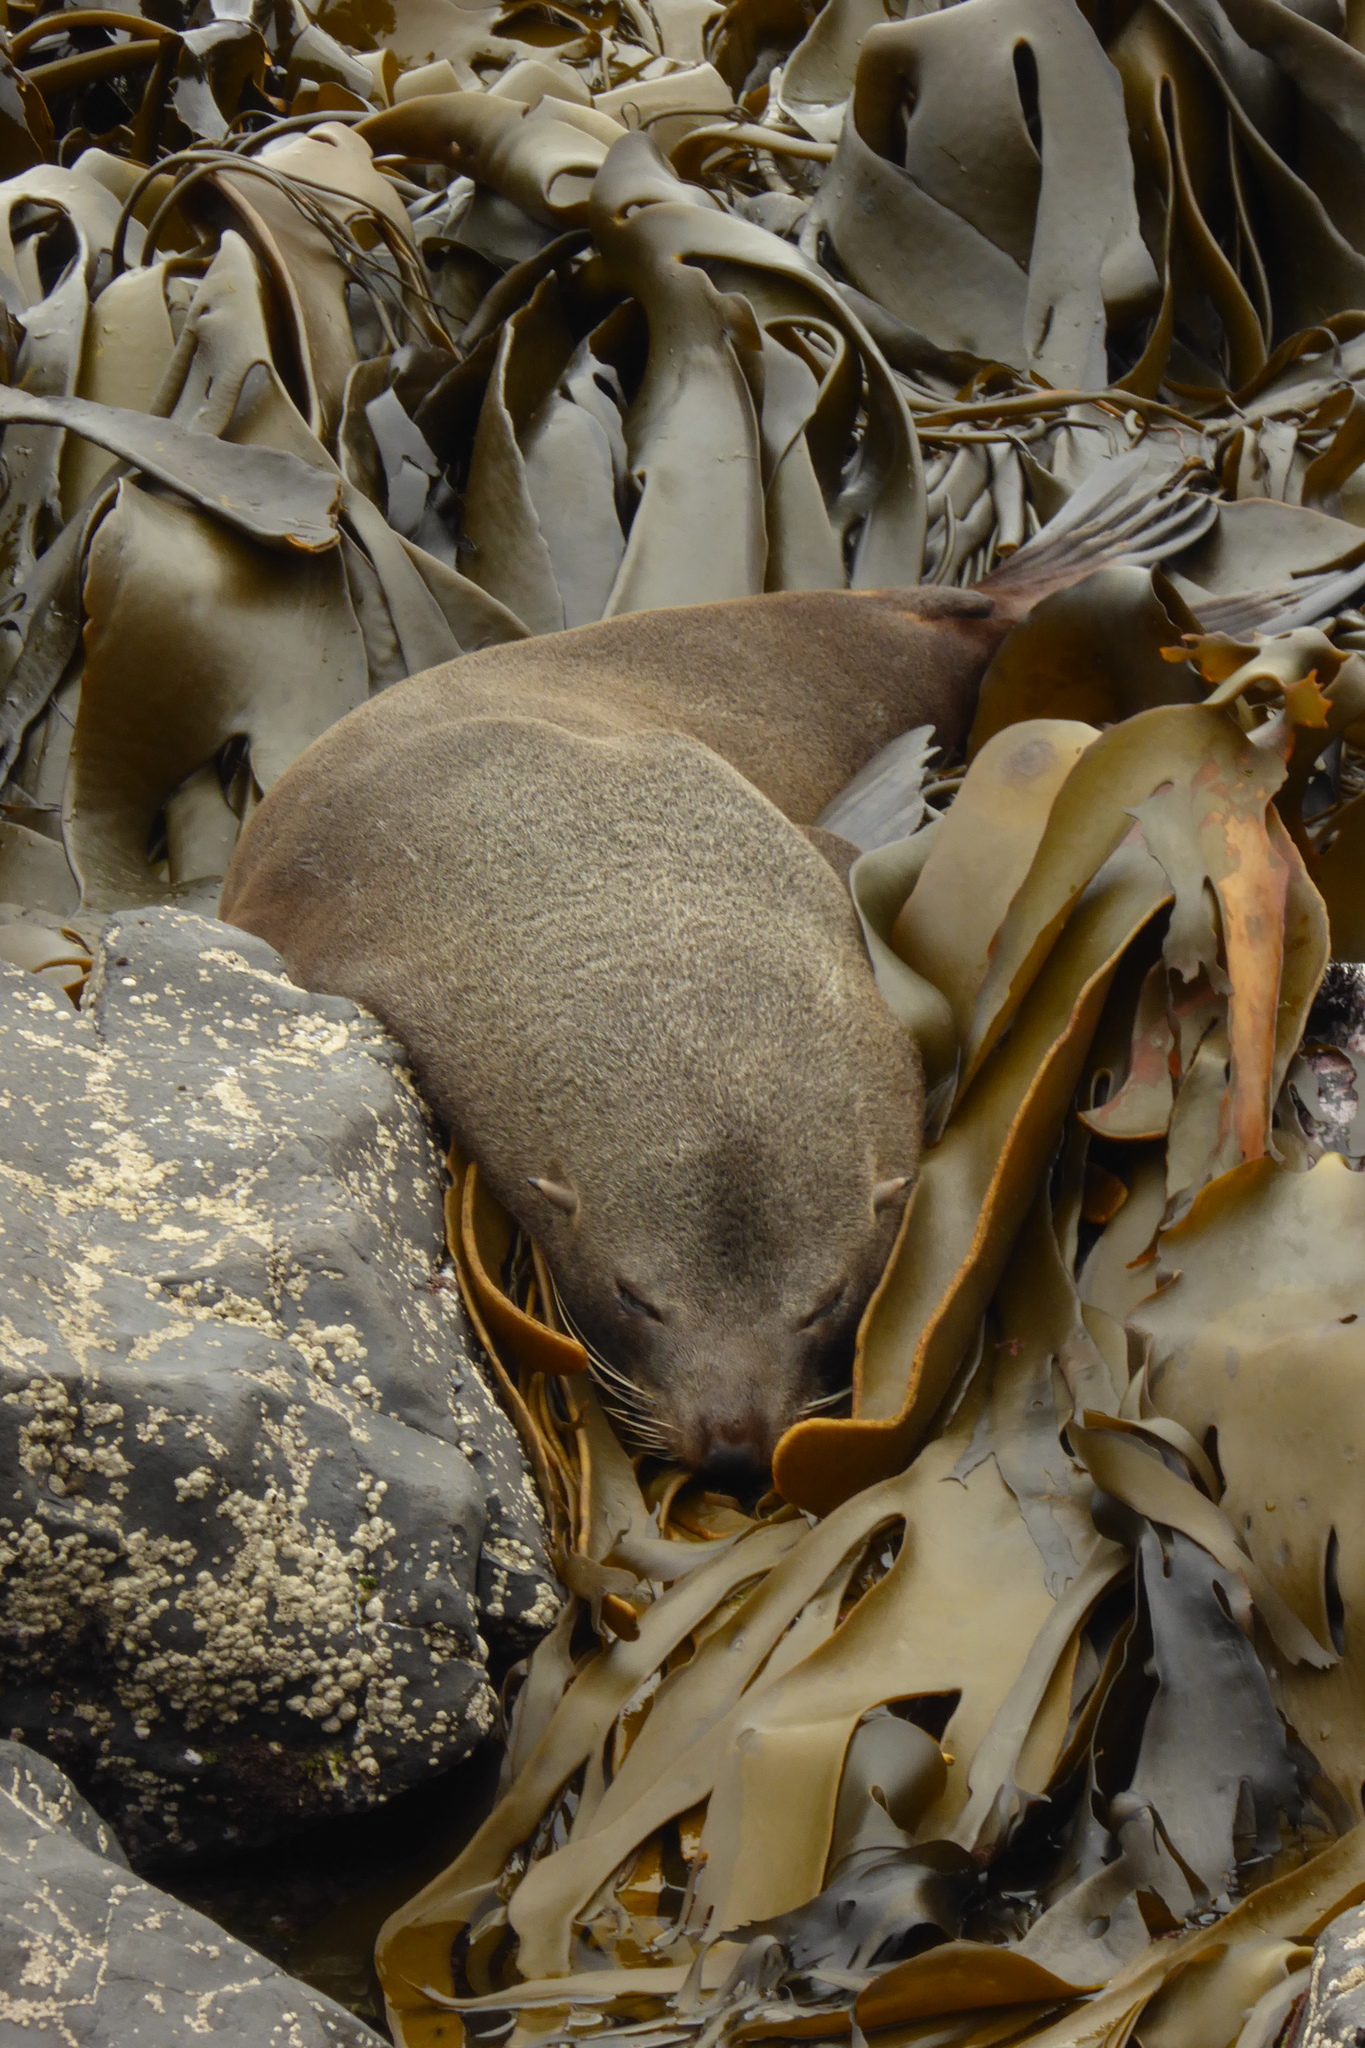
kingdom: Animalia
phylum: Chordata
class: Mammalia
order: Carnivora
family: Otariidae
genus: Arctocephalus
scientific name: Arctocephalus forsteri
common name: New zealand fur seal
